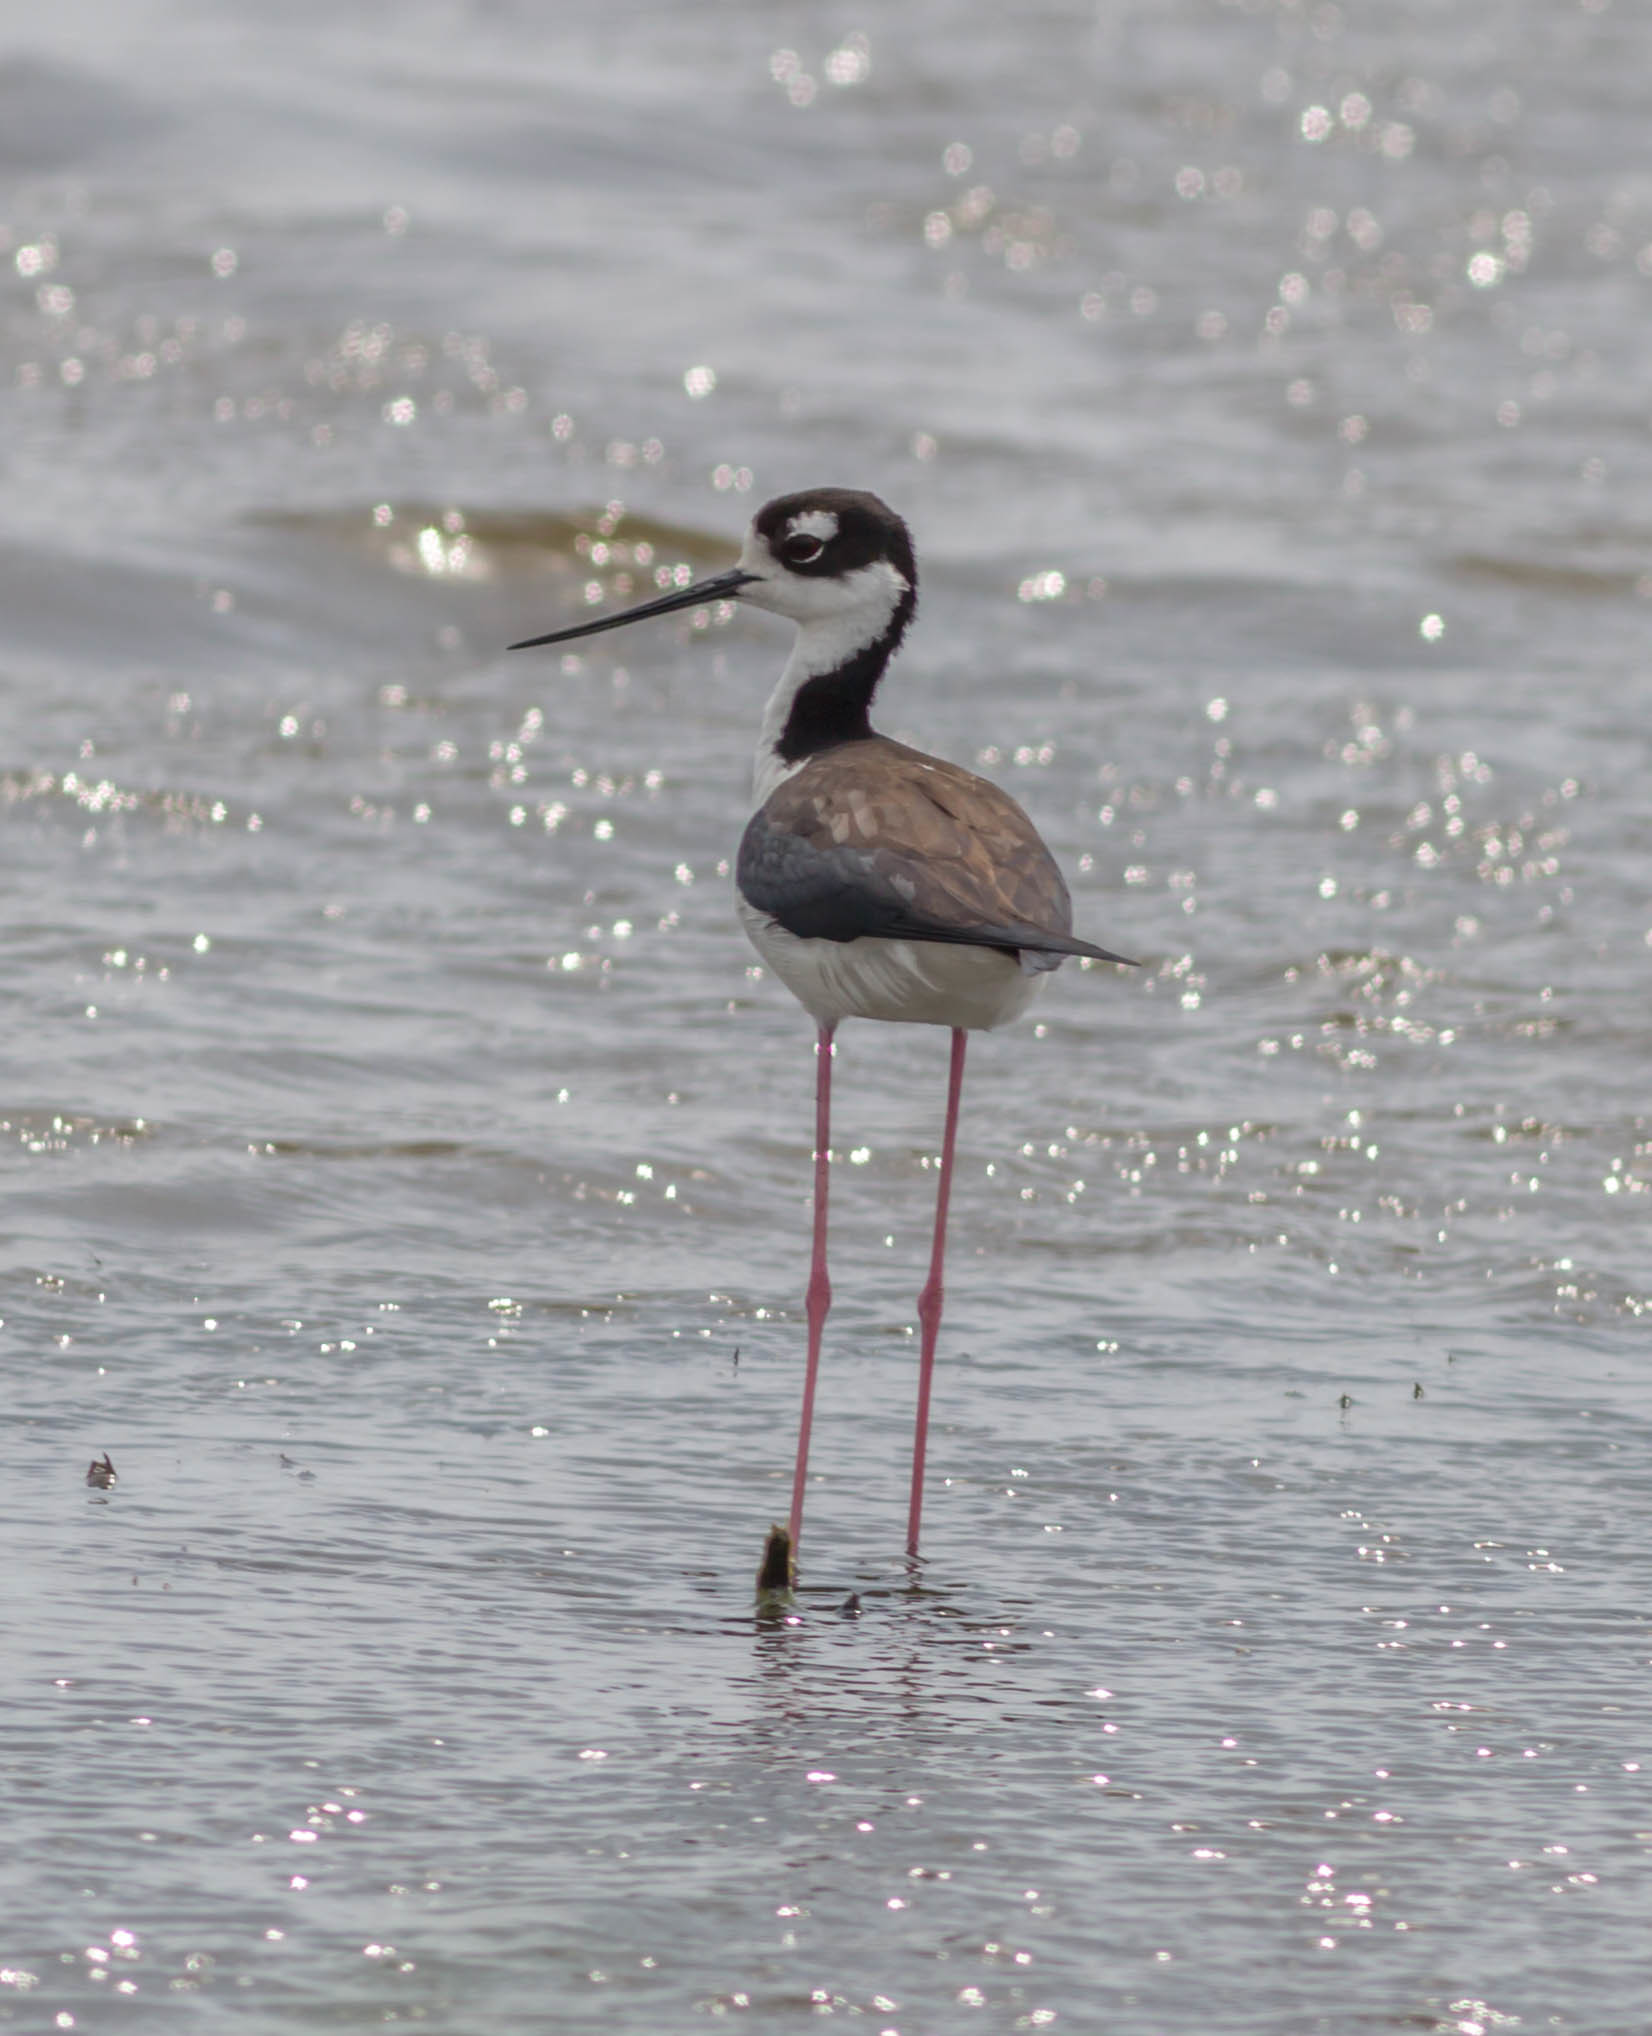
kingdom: Animalia
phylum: Chordata
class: Aves
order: Charadriiformes
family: Recurvirostridae
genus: Himantopus
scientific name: Himantopus mexicanus
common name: Black-necked stilt
